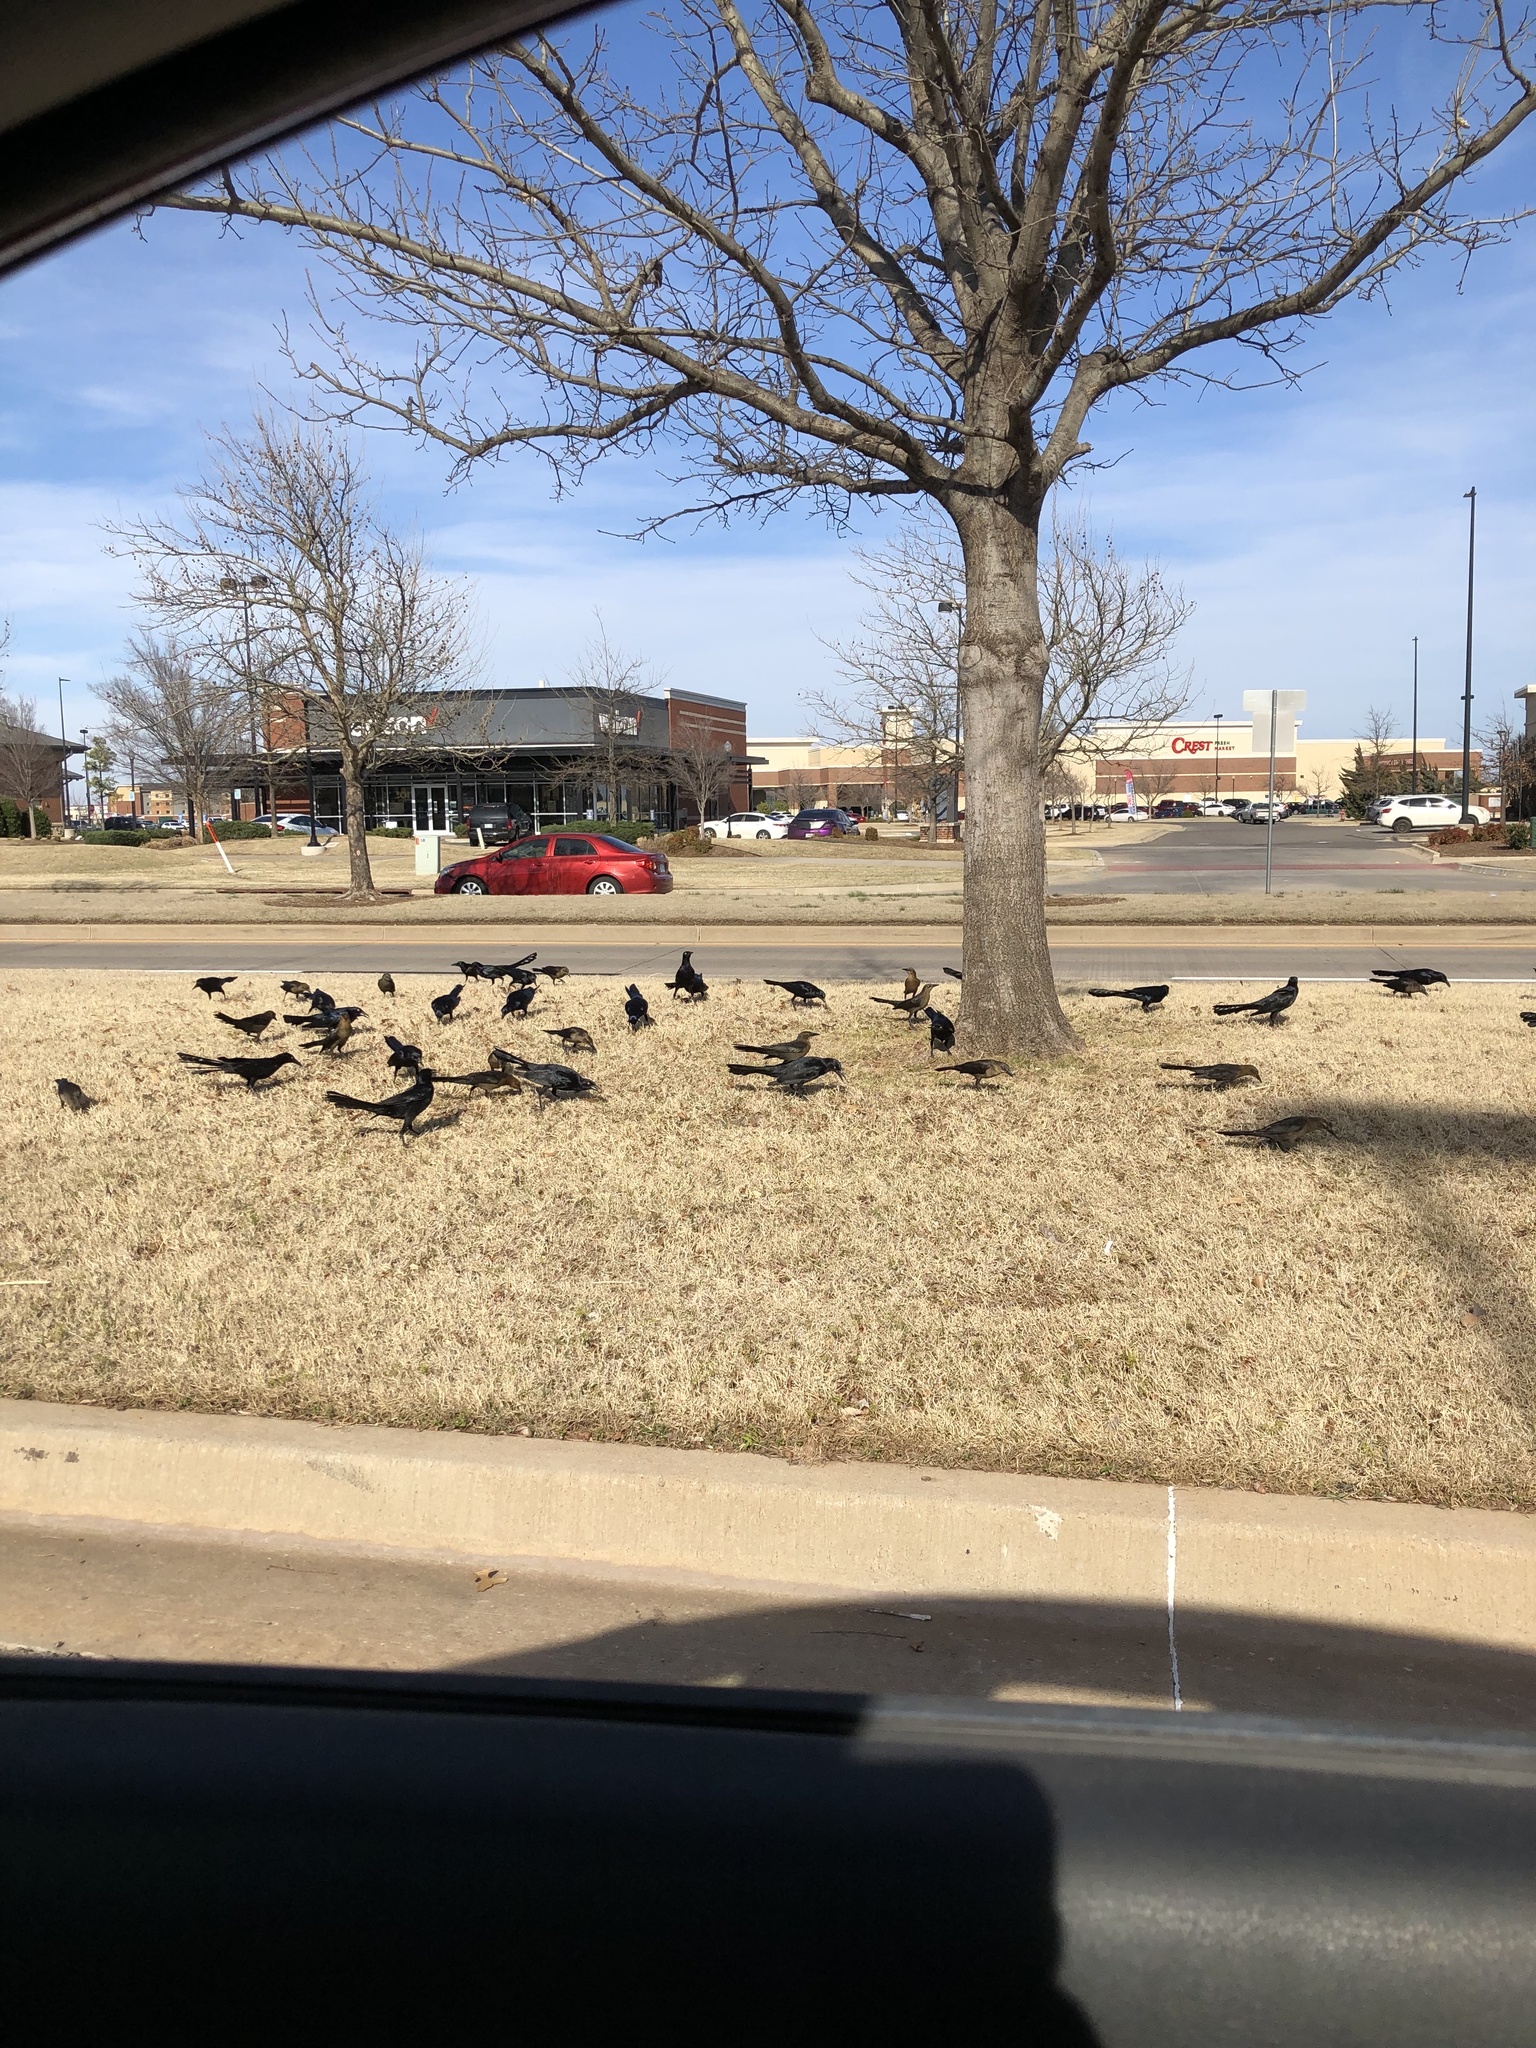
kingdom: Animalia
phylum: Chordata
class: Aves
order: Passeriformes
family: Icteridae
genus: Quiscalus
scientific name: Quiscalus mexicanus
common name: Great-tailed grackle
